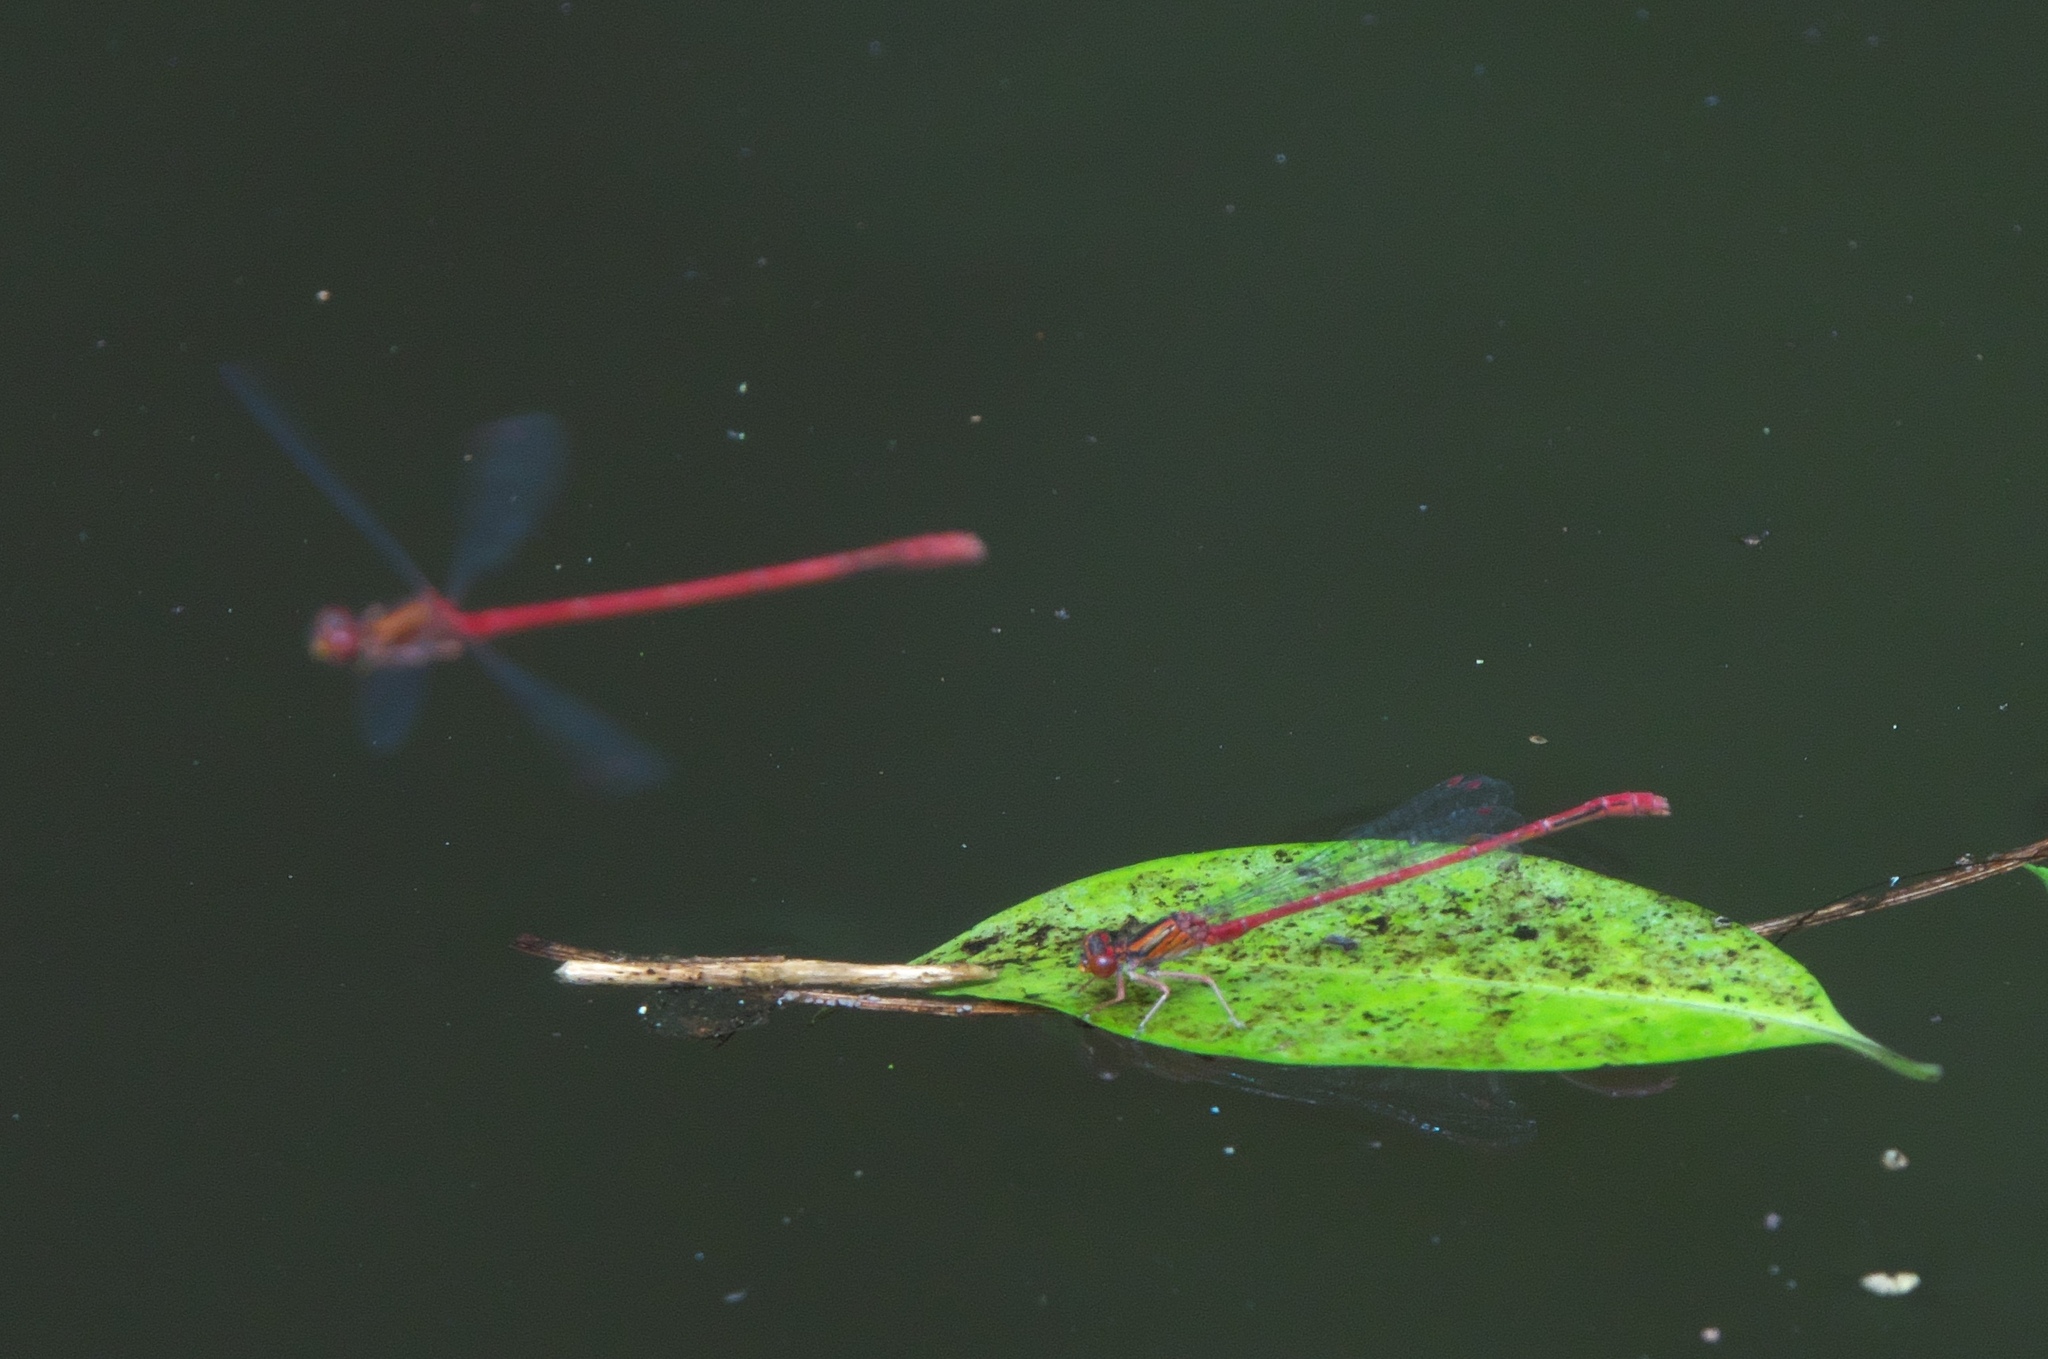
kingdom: Animalia
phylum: Arthropoda
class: Insecta
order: Odonata
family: Coenagrionidae
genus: Xanthocnemis
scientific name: Xanthocnemis zealandica
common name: Common redcoat damselfly
